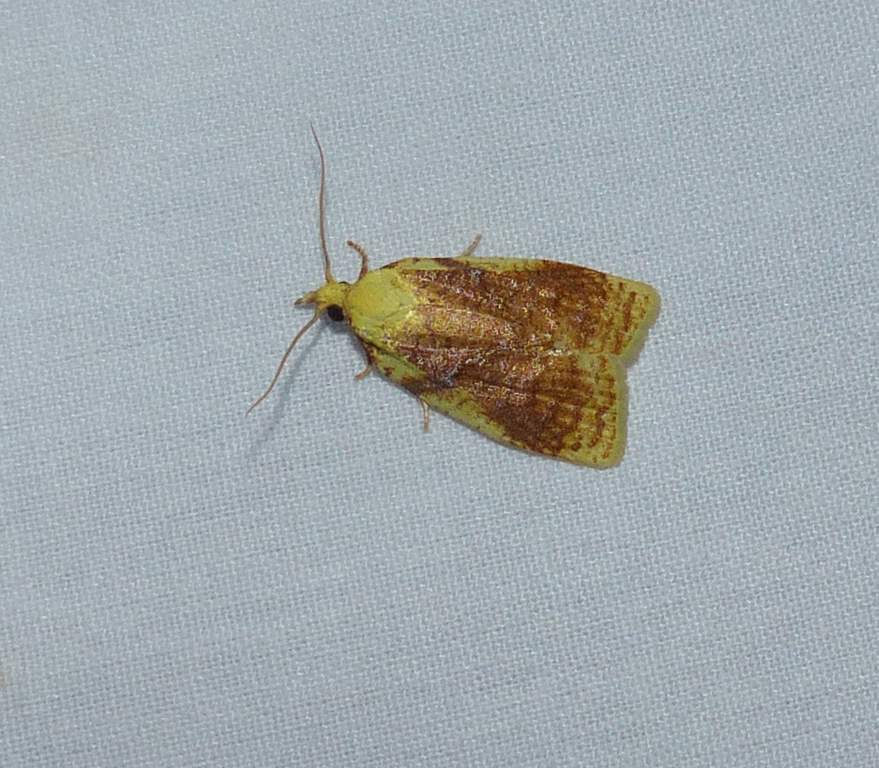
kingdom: Animalia
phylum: Arthropoda
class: Insecta
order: Lepidoptera
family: Tortricidae
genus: Cenopis
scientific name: Cenopis pettitana
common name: Maple-basswood leafroller moth
